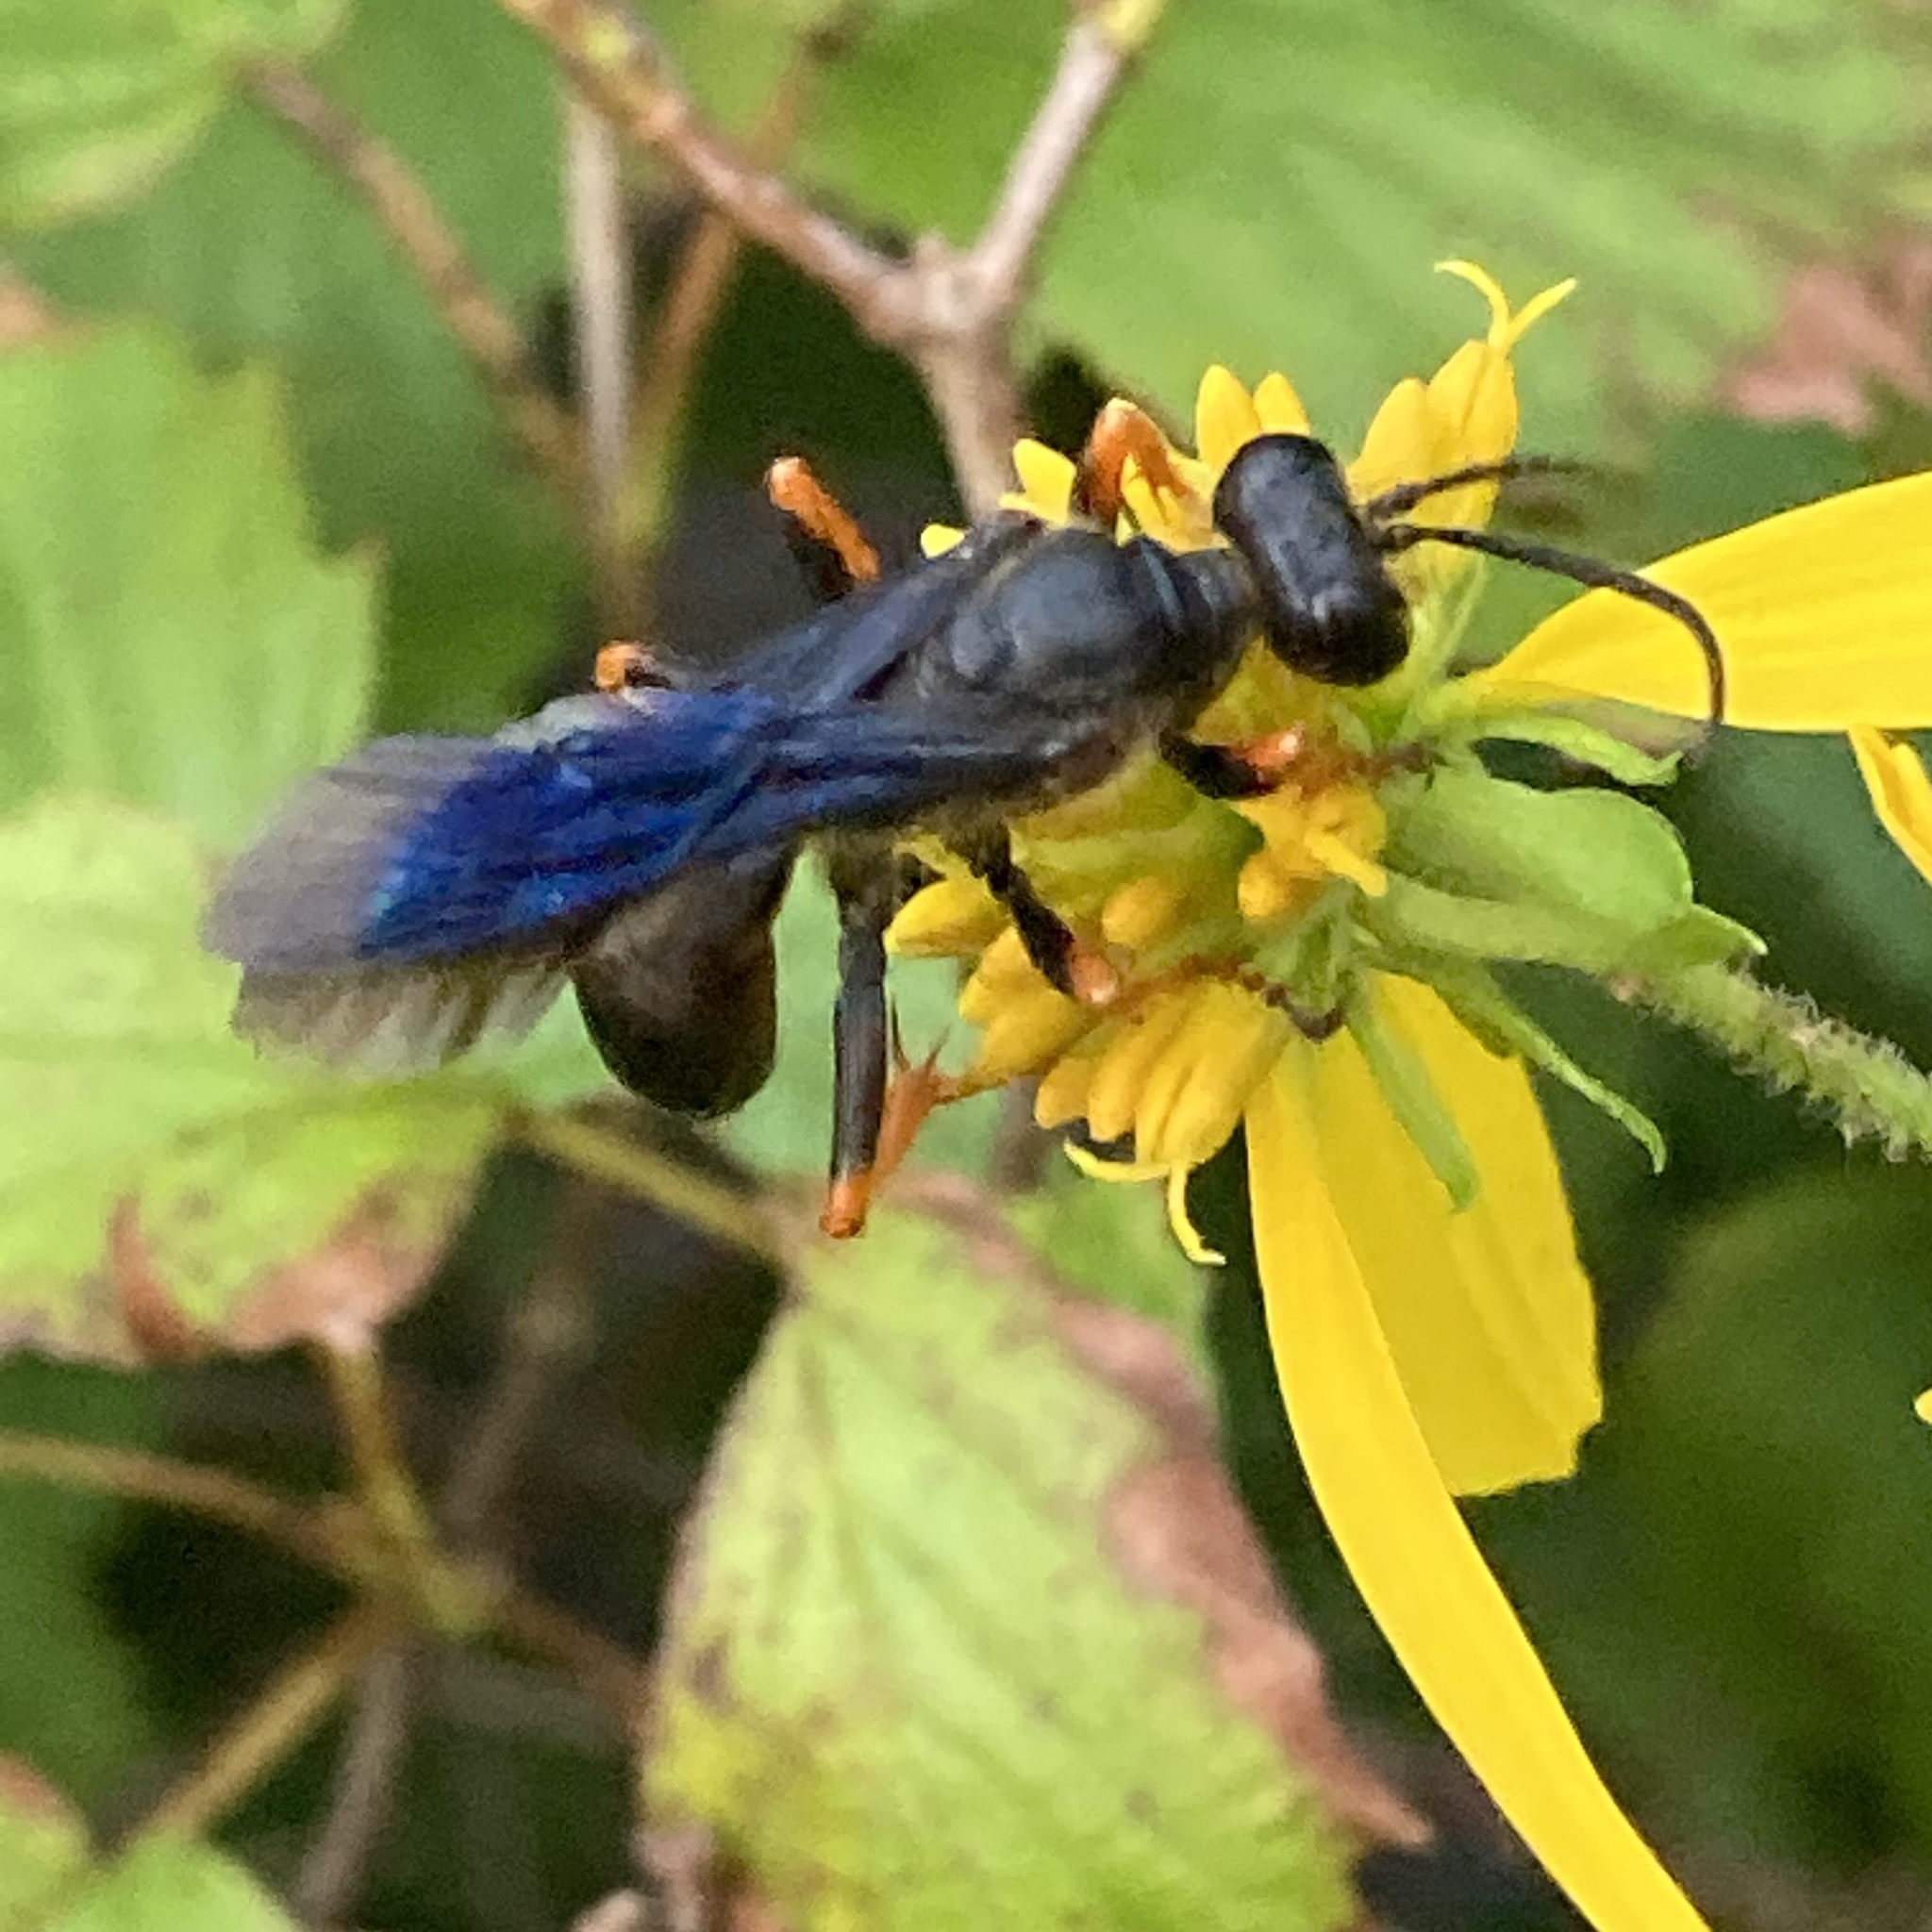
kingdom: Animalia
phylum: Arthropoda
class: Insecta
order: Hymenoptera
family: Sphecidae
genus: Sphex
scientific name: Sphex nudus
